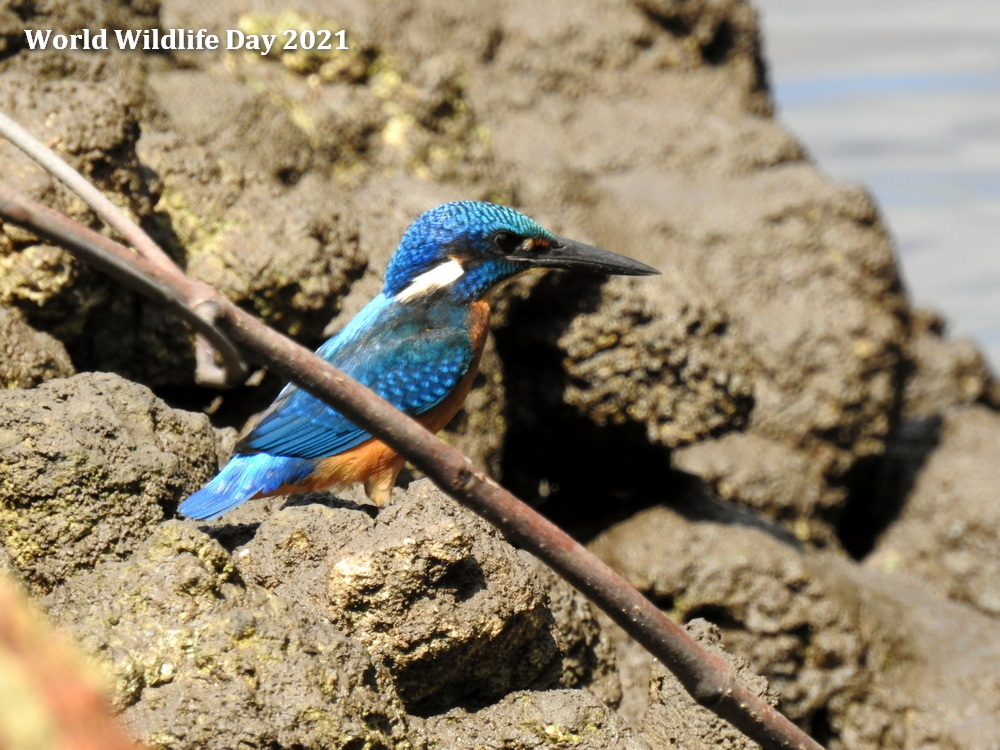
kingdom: Animalia
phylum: Chordata
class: Aves
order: Coraciiformes
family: Alcedinidae
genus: Alcedo
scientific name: Alcedo atthis
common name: Common kingfisher
